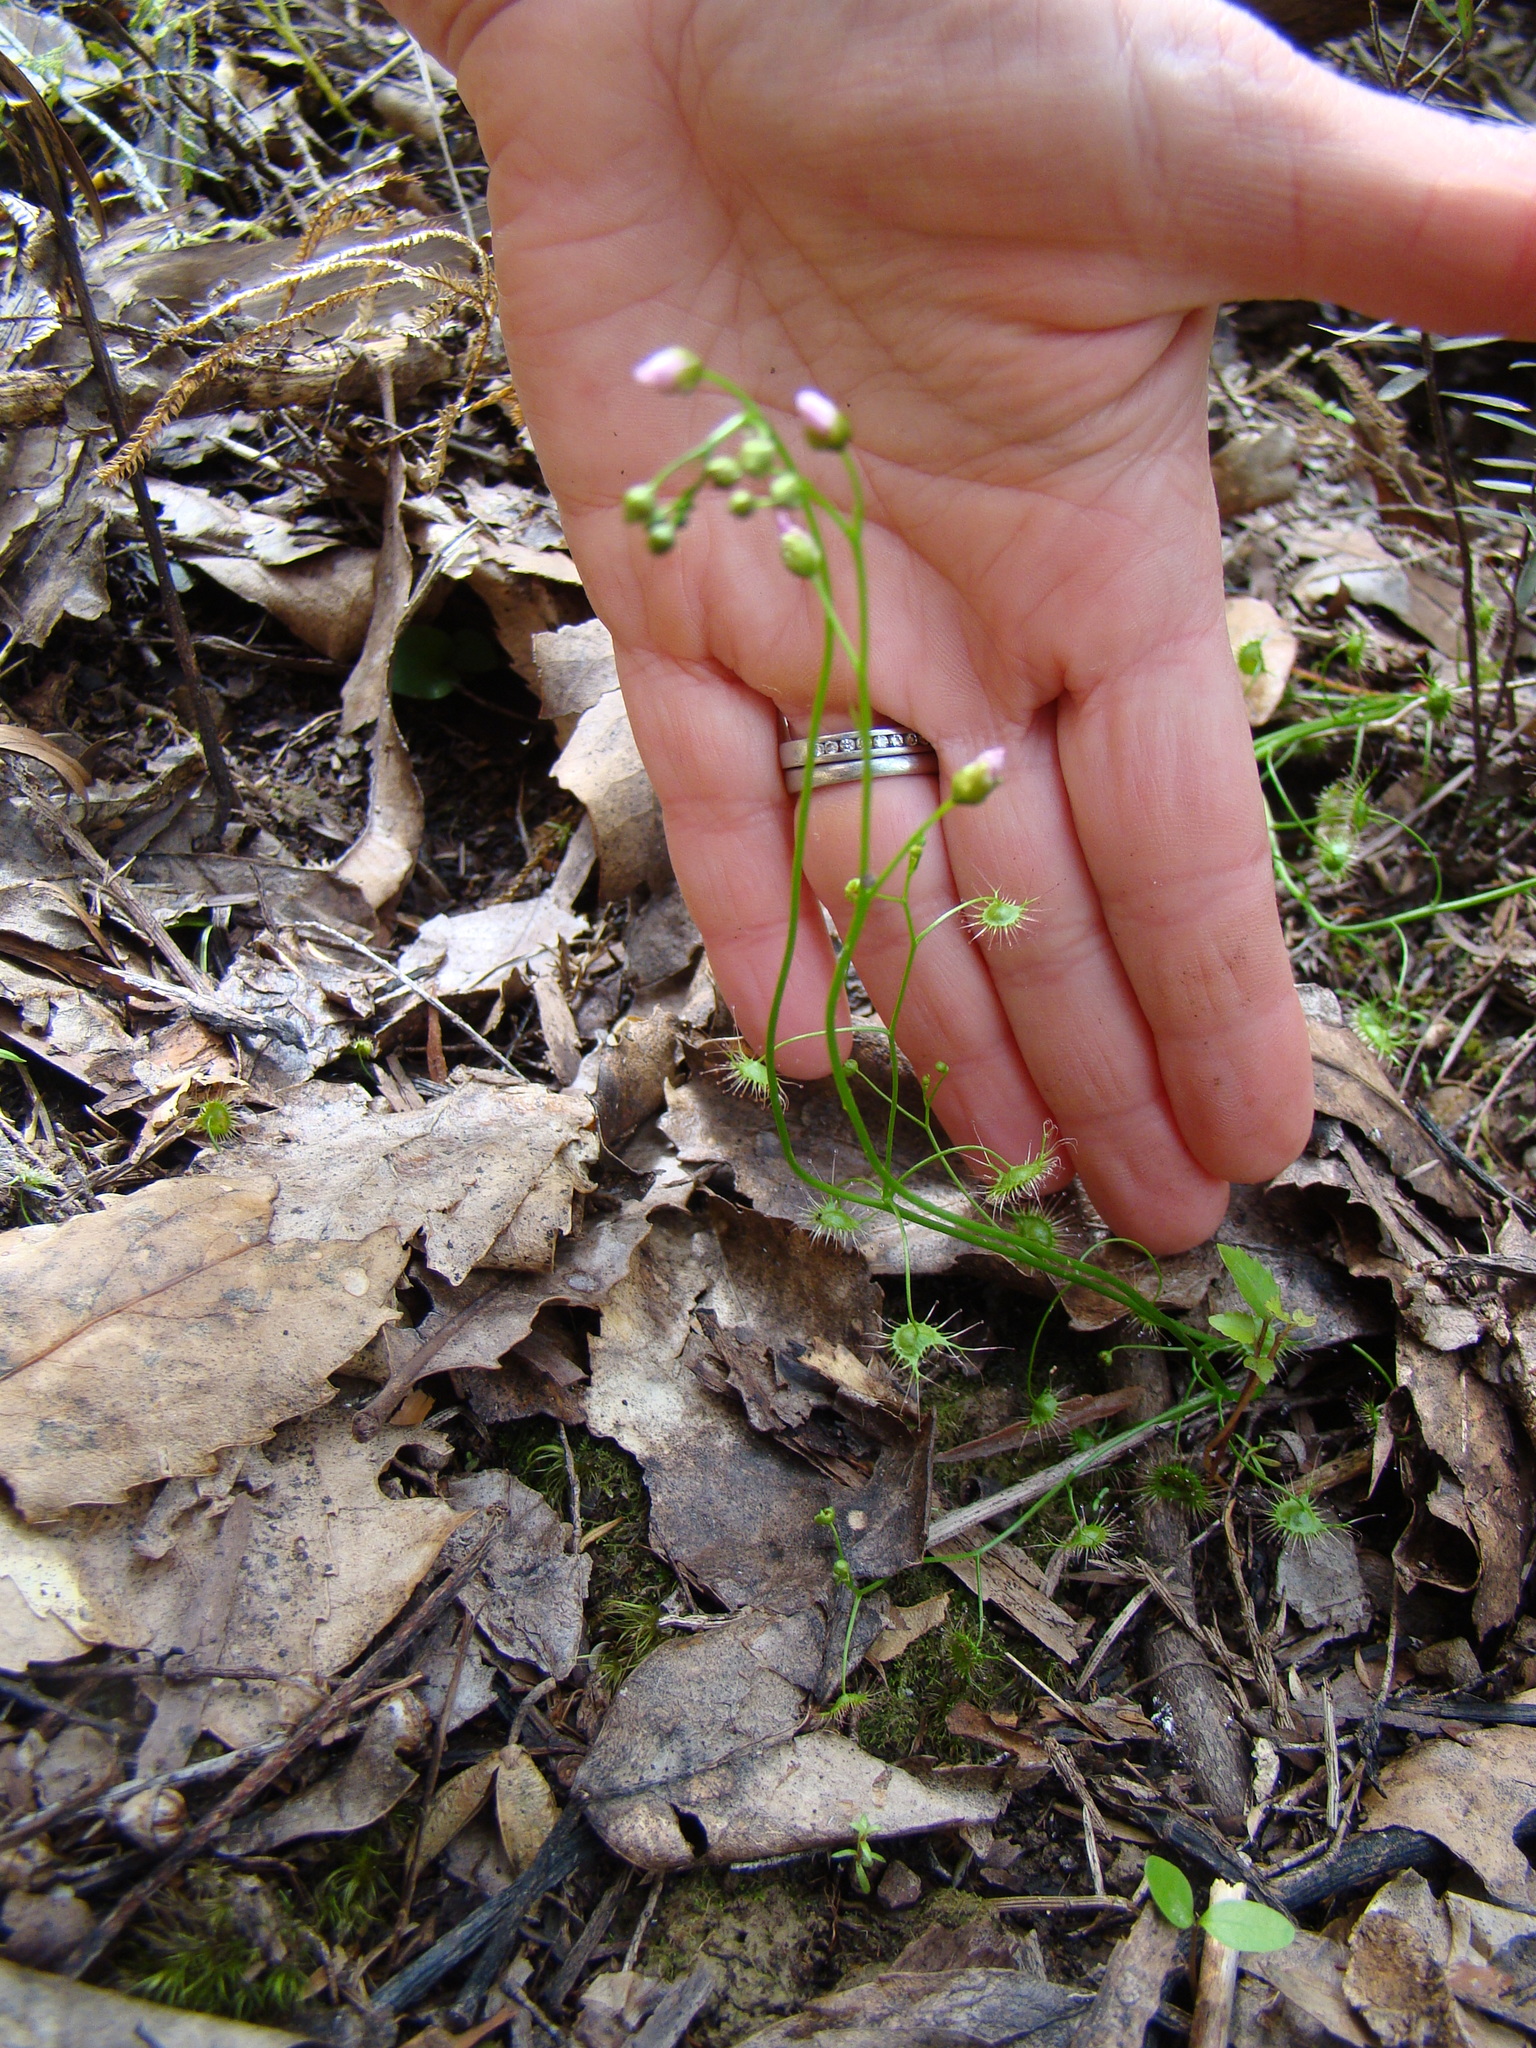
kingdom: Plantae
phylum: Tracheophyta
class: Magnoliopsida
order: Caryophyllales
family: Droseraceae
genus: Drosera
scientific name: Drosera peltata
